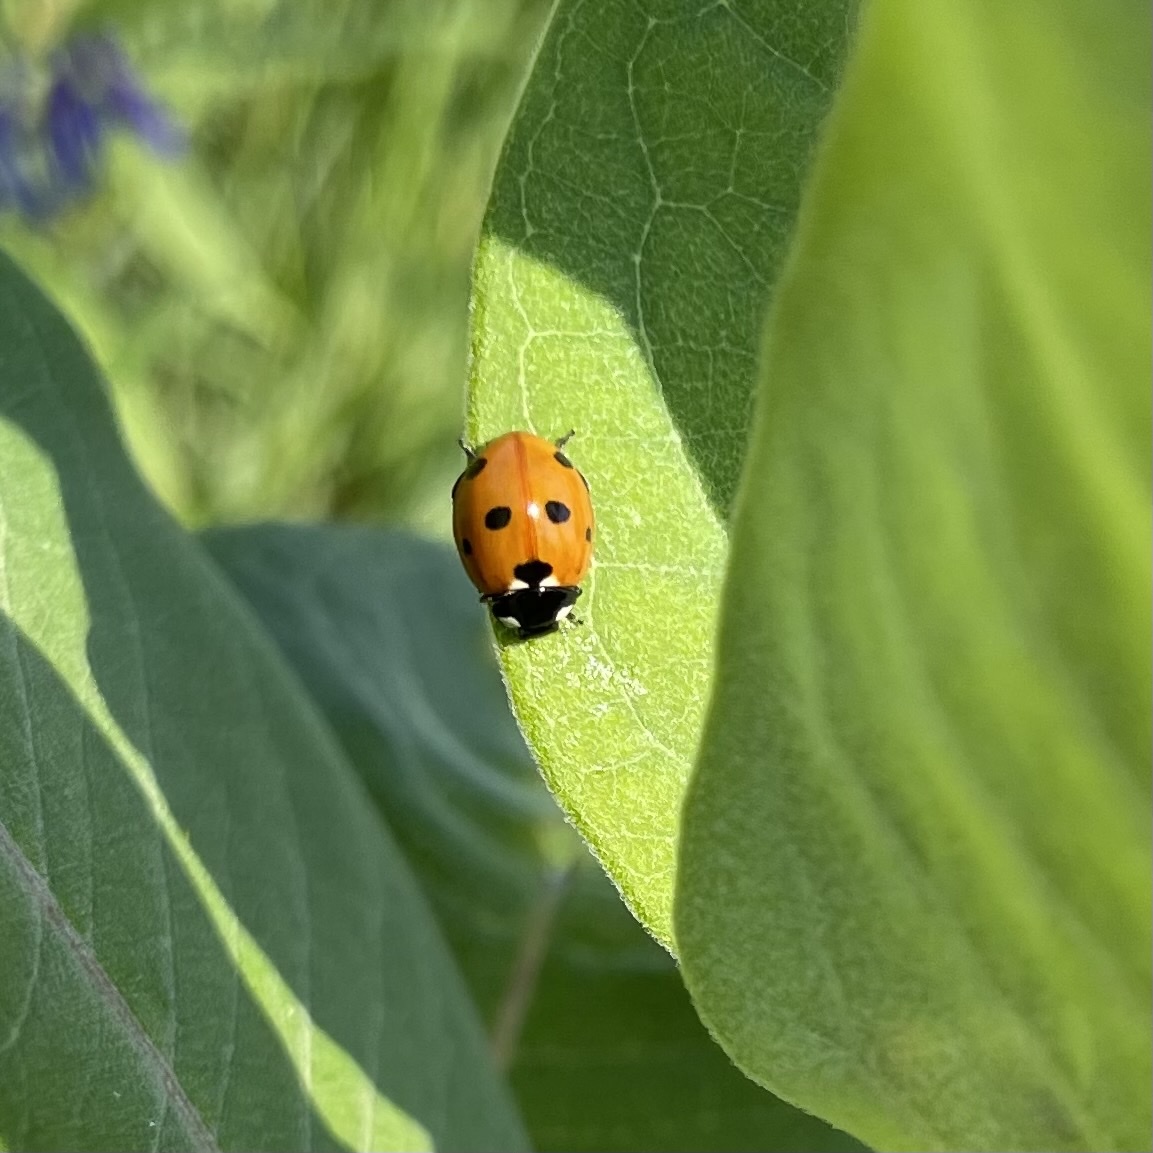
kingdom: Animalia
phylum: Arthropoda
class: Insecta
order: Coleoptera
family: Coccinellidae
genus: Coccinella
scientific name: Coccinella septempunctata
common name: Sevenspotted lady beetle
